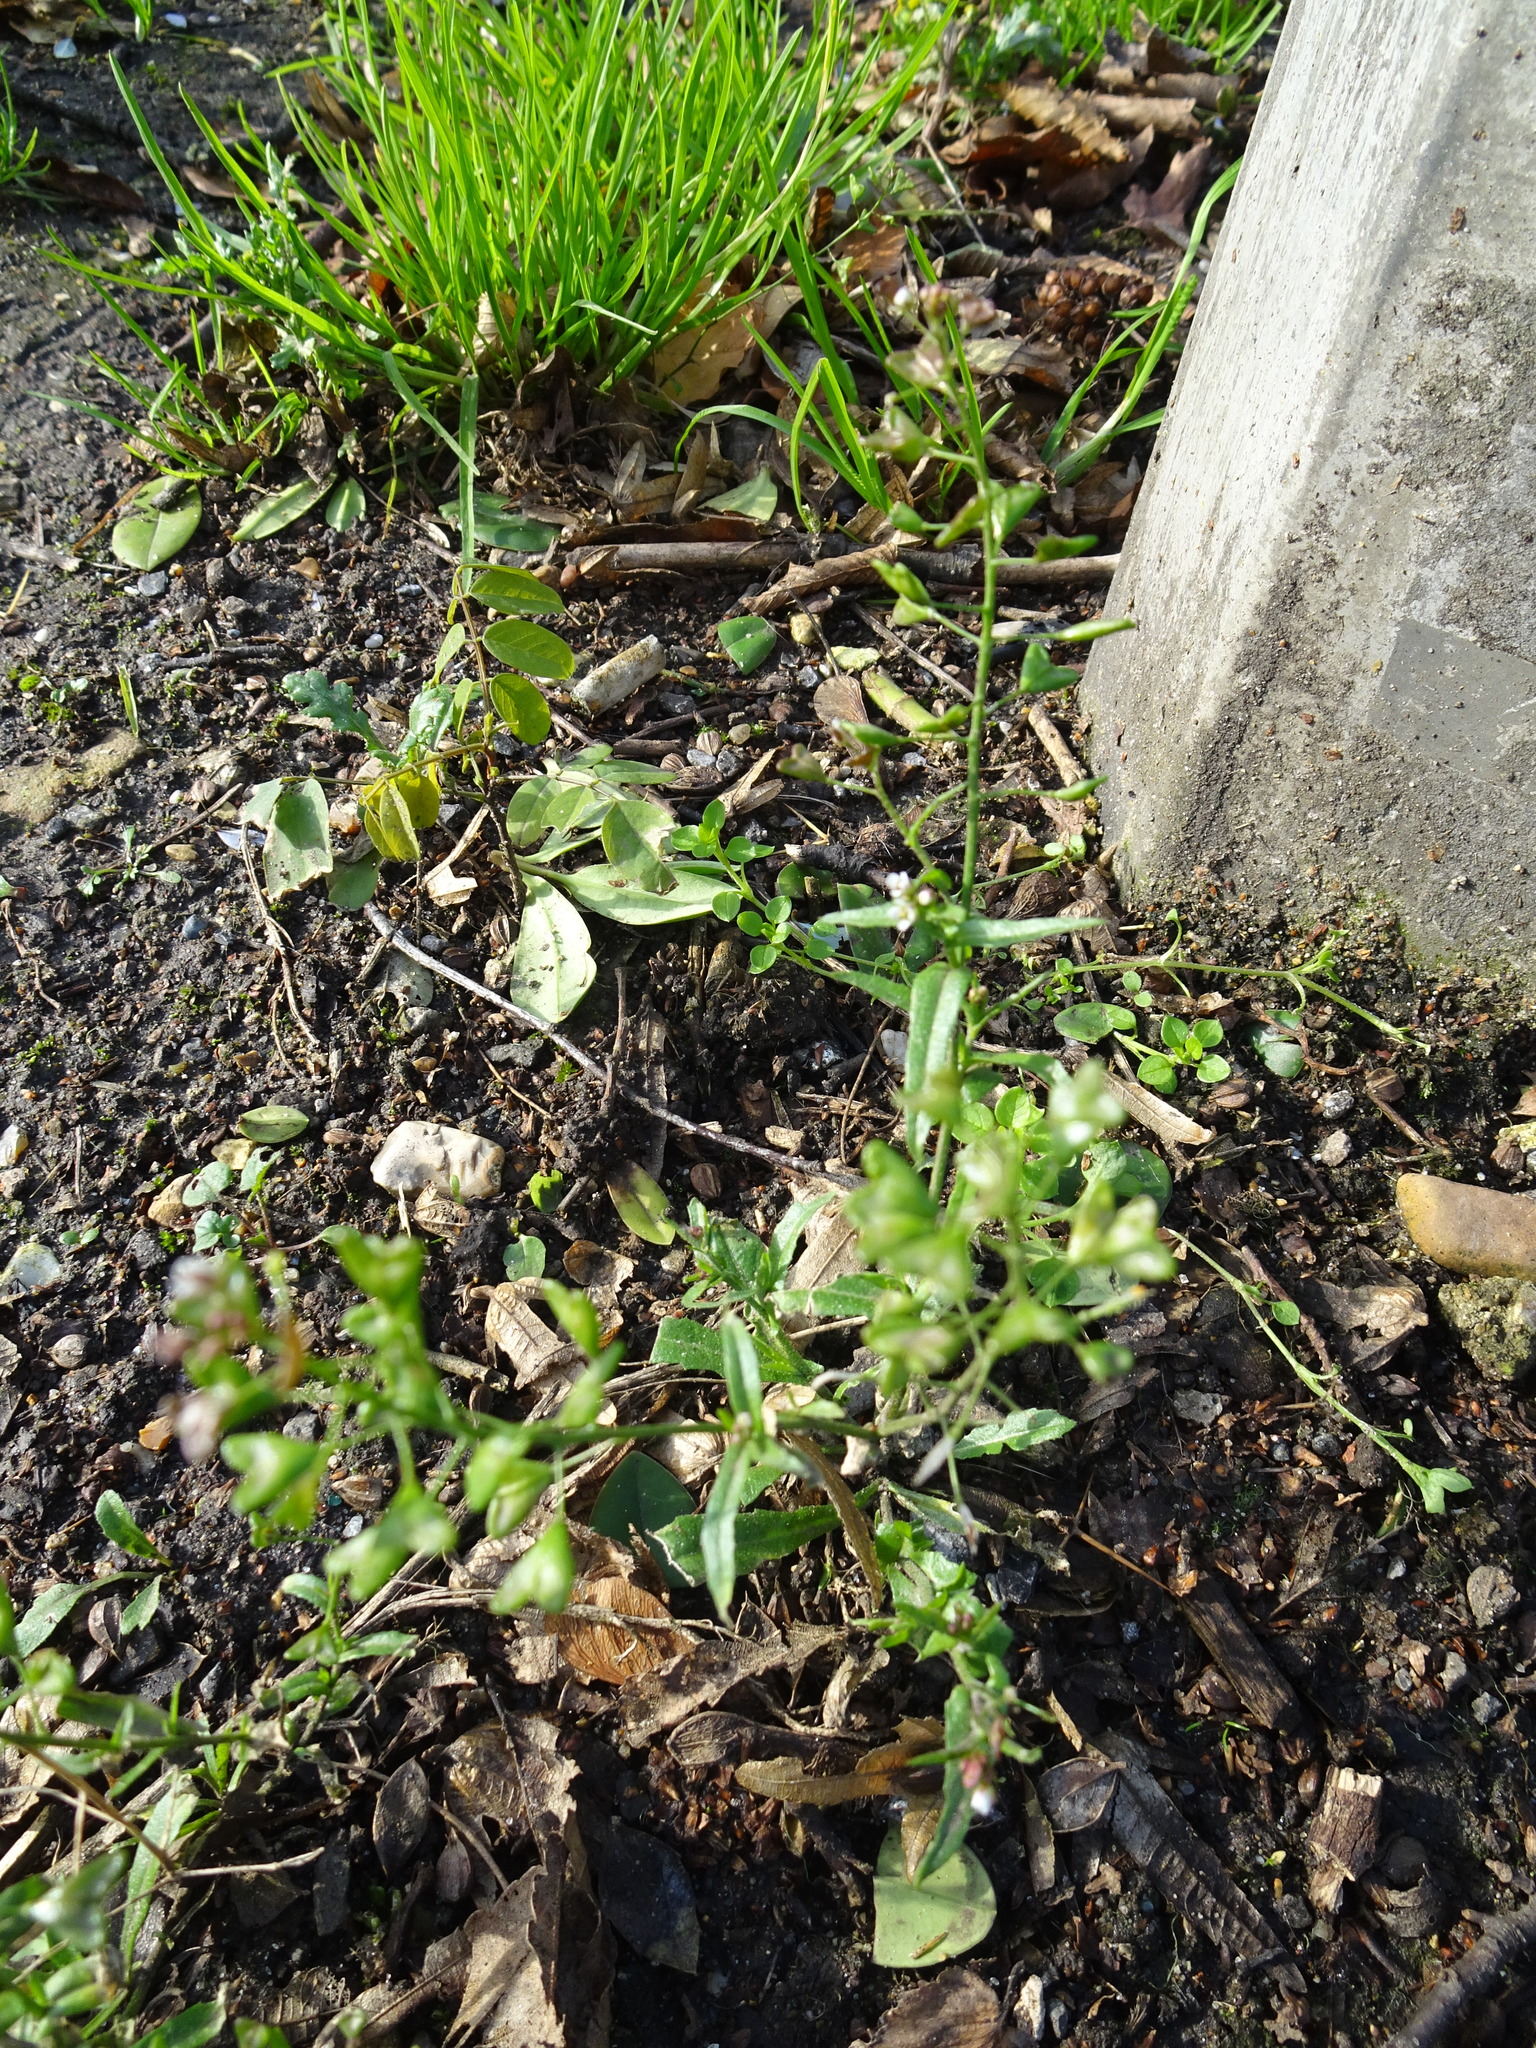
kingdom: Plantae
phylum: Tracheophyta
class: Magnoliopsida
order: Brassicales
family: Brassicaceae
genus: Capsella
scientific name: Capsella bursa-pastoris
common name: Shepherd's purse
